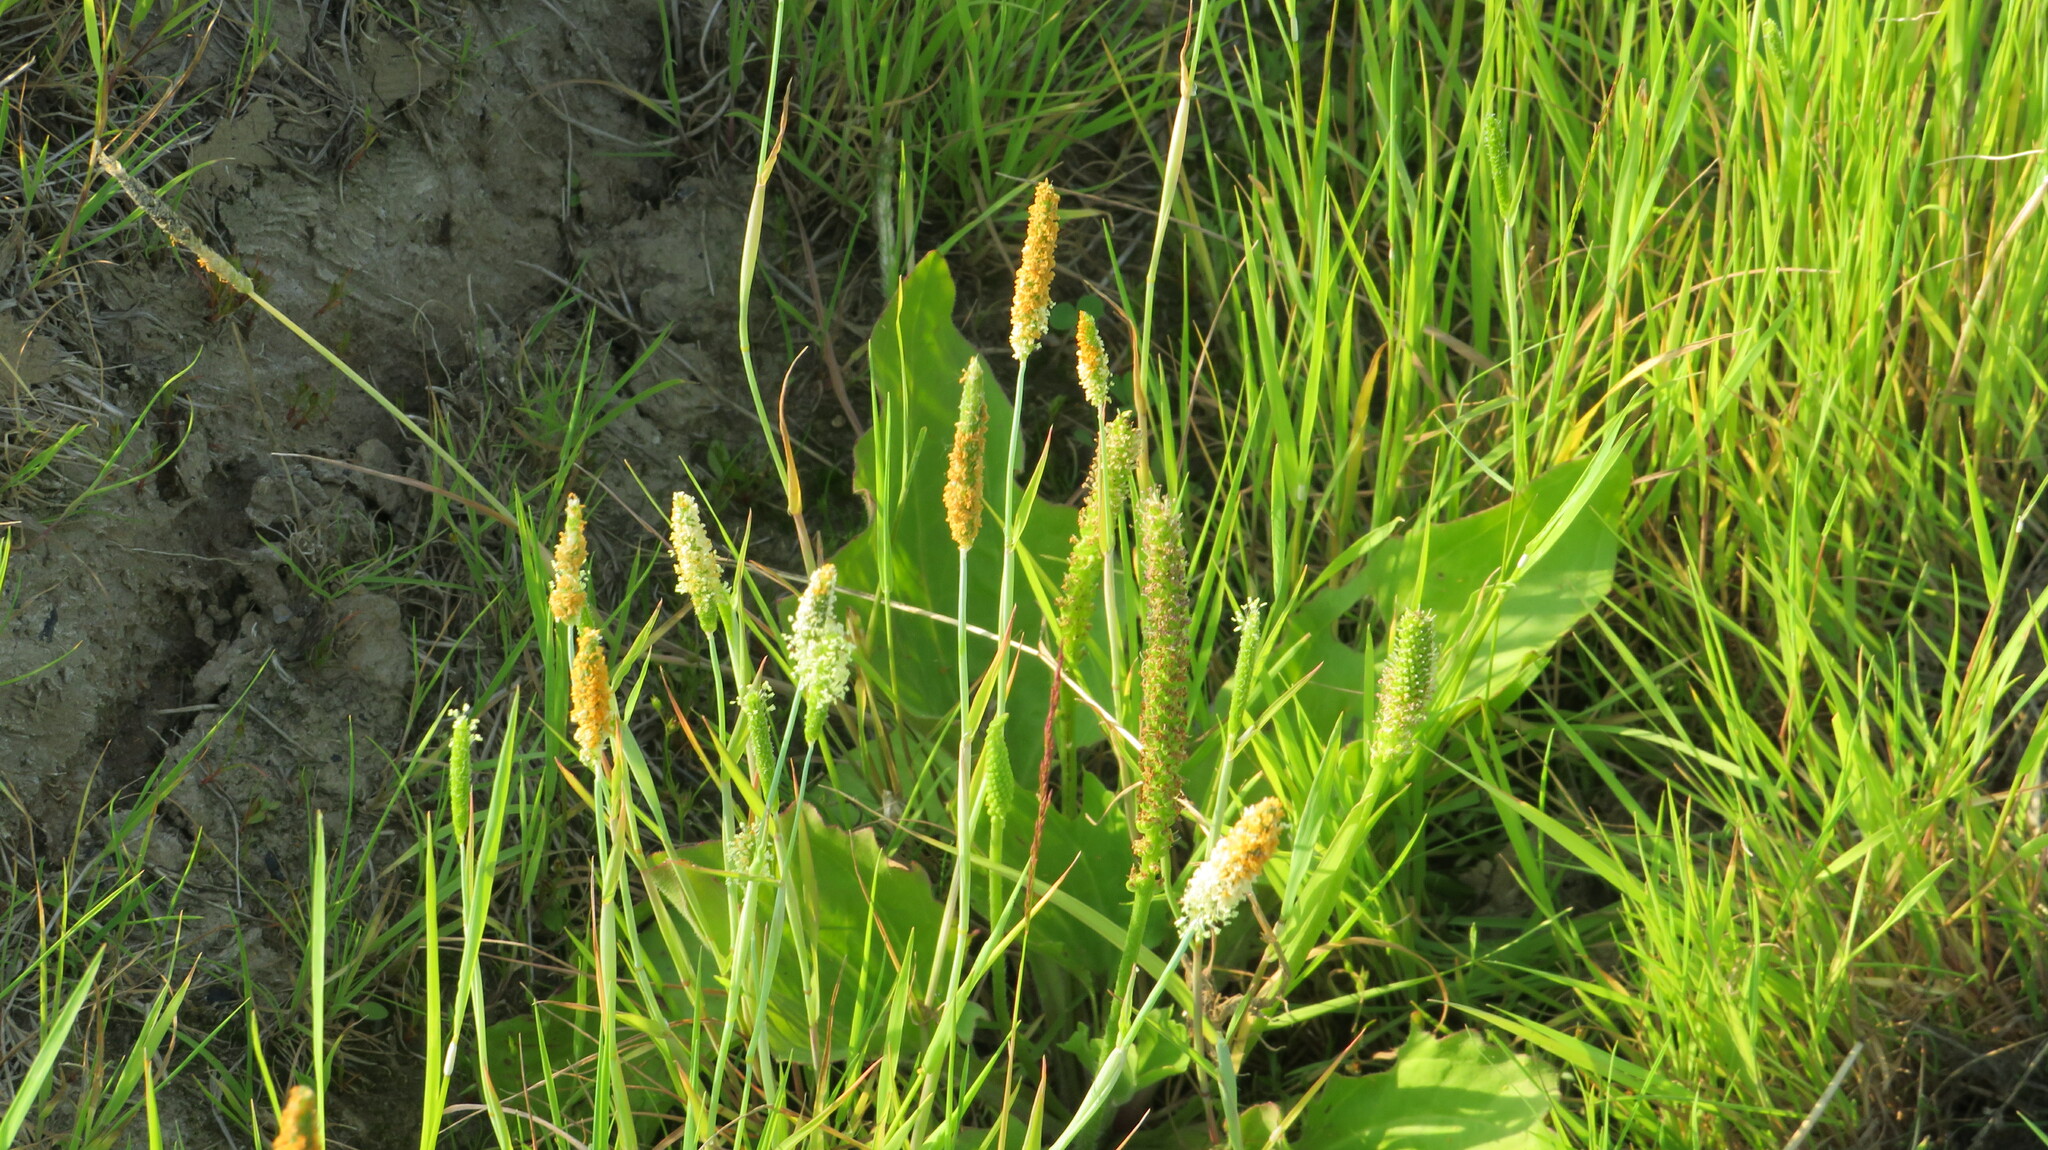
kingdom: Plantae
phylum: Tracheophyta
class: Liliopsida
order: Poales
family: Poaceae
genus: Alopecurus
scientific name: Alopecurus aequalis
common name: Orange foxtail
